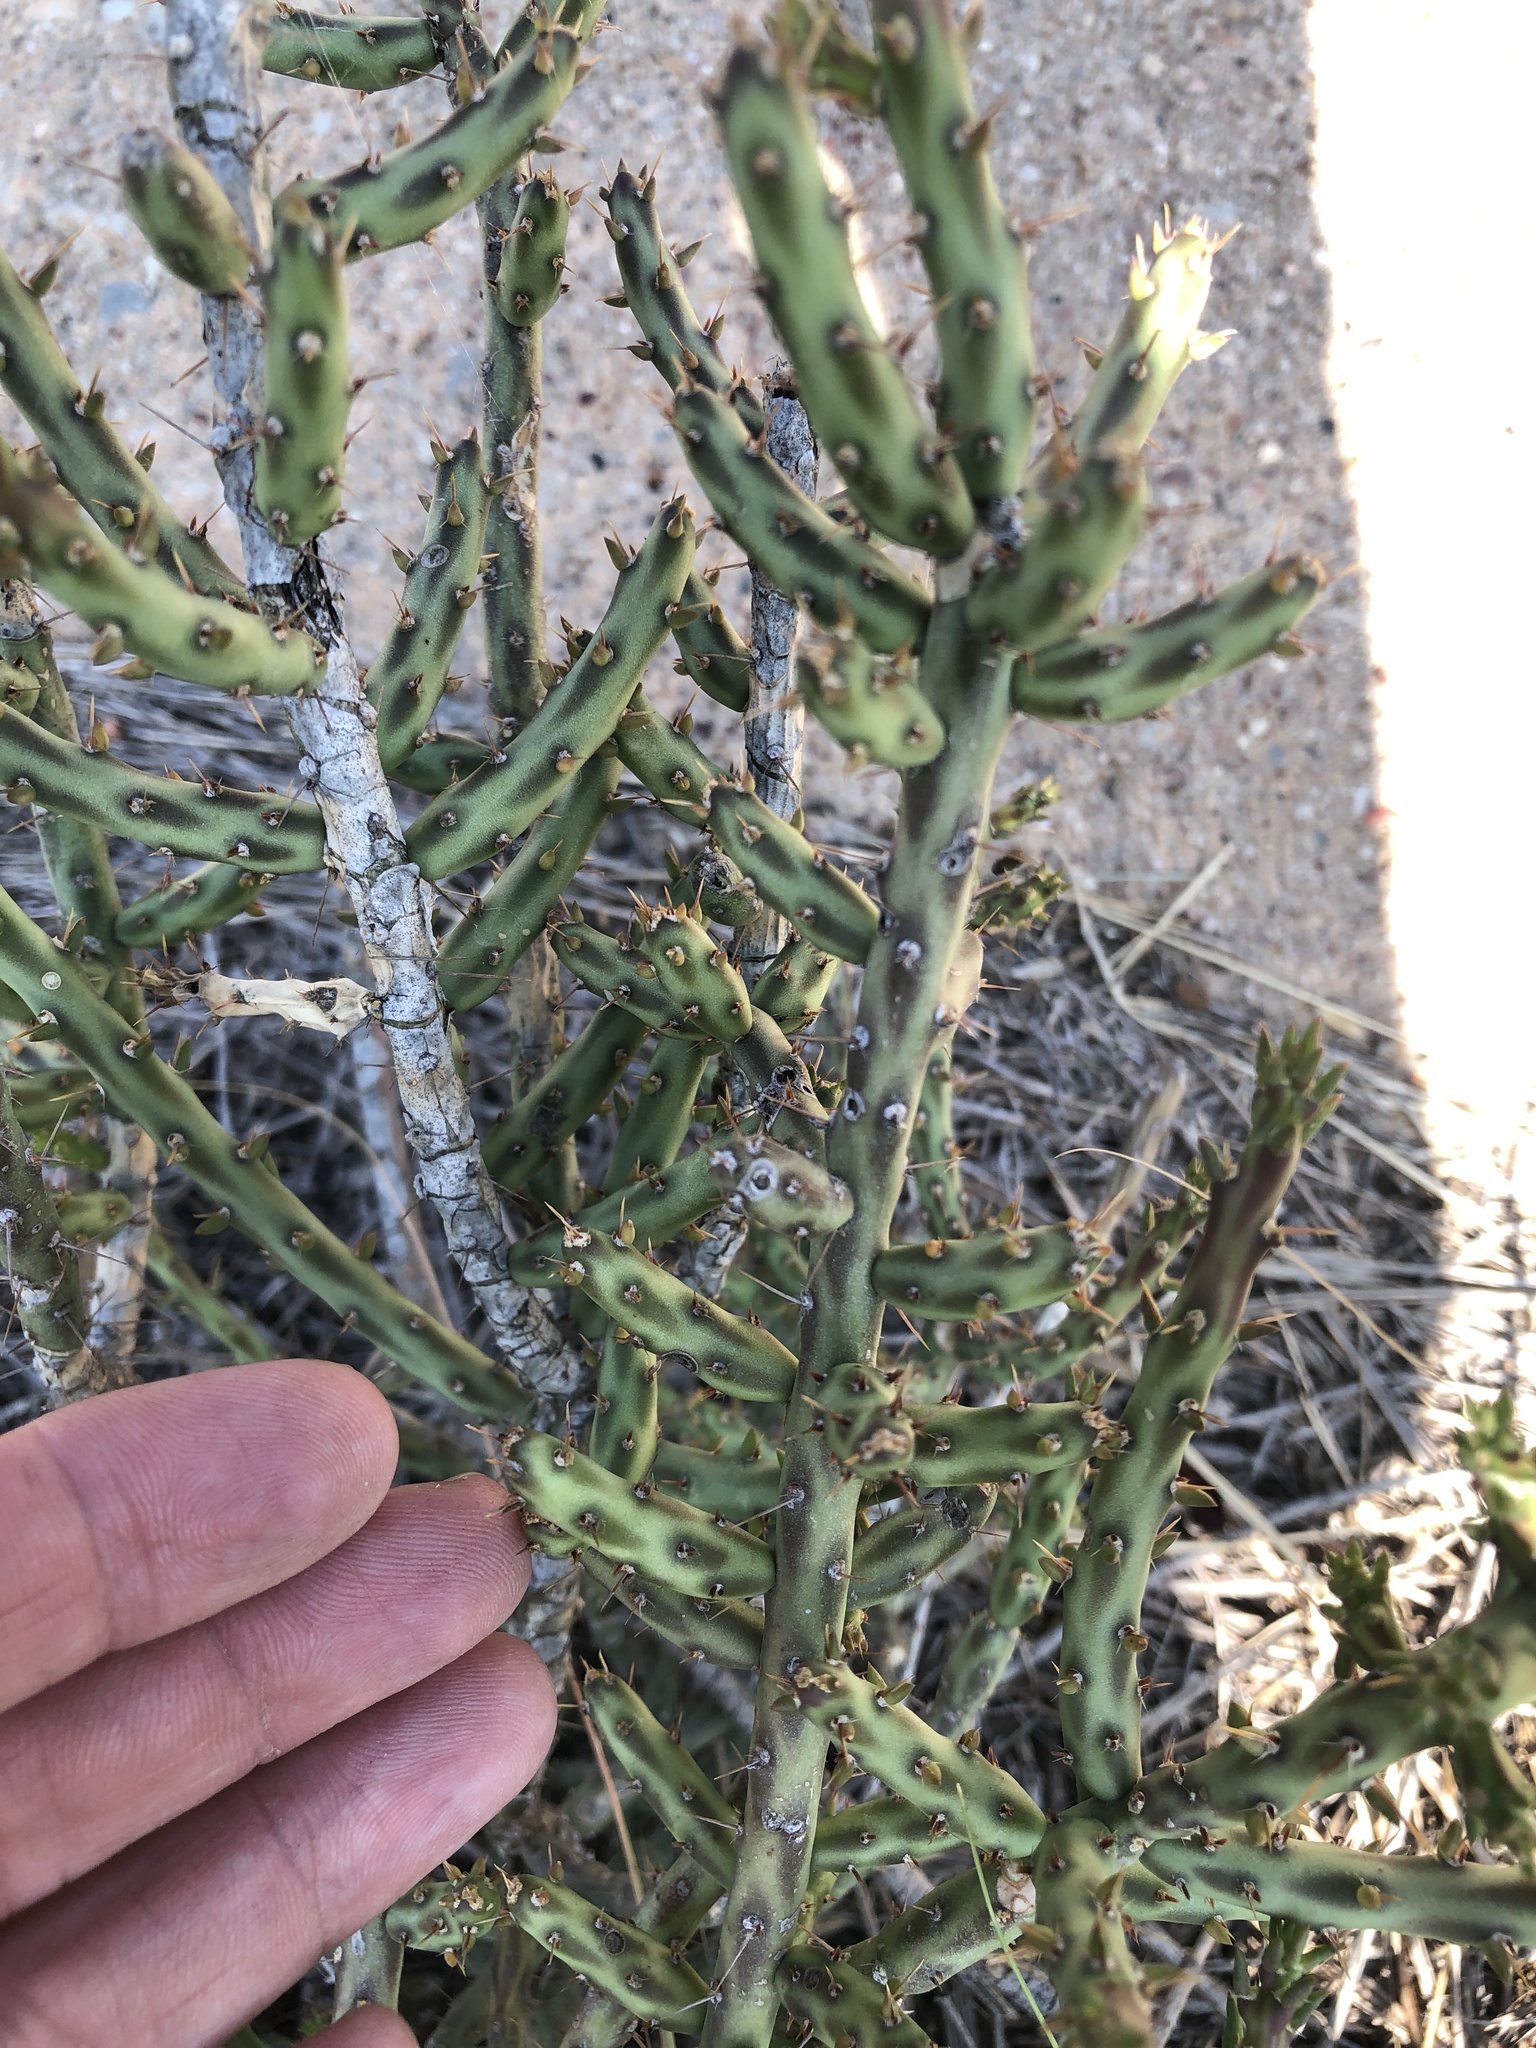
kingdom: Plantae
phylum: Tracheophyta
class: Magnoliopsida
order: Caryophyllales
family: Cactaceae
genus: Cylindropuntia
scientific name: Cylindropuntia leptocaulis
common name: Christmas cactus
